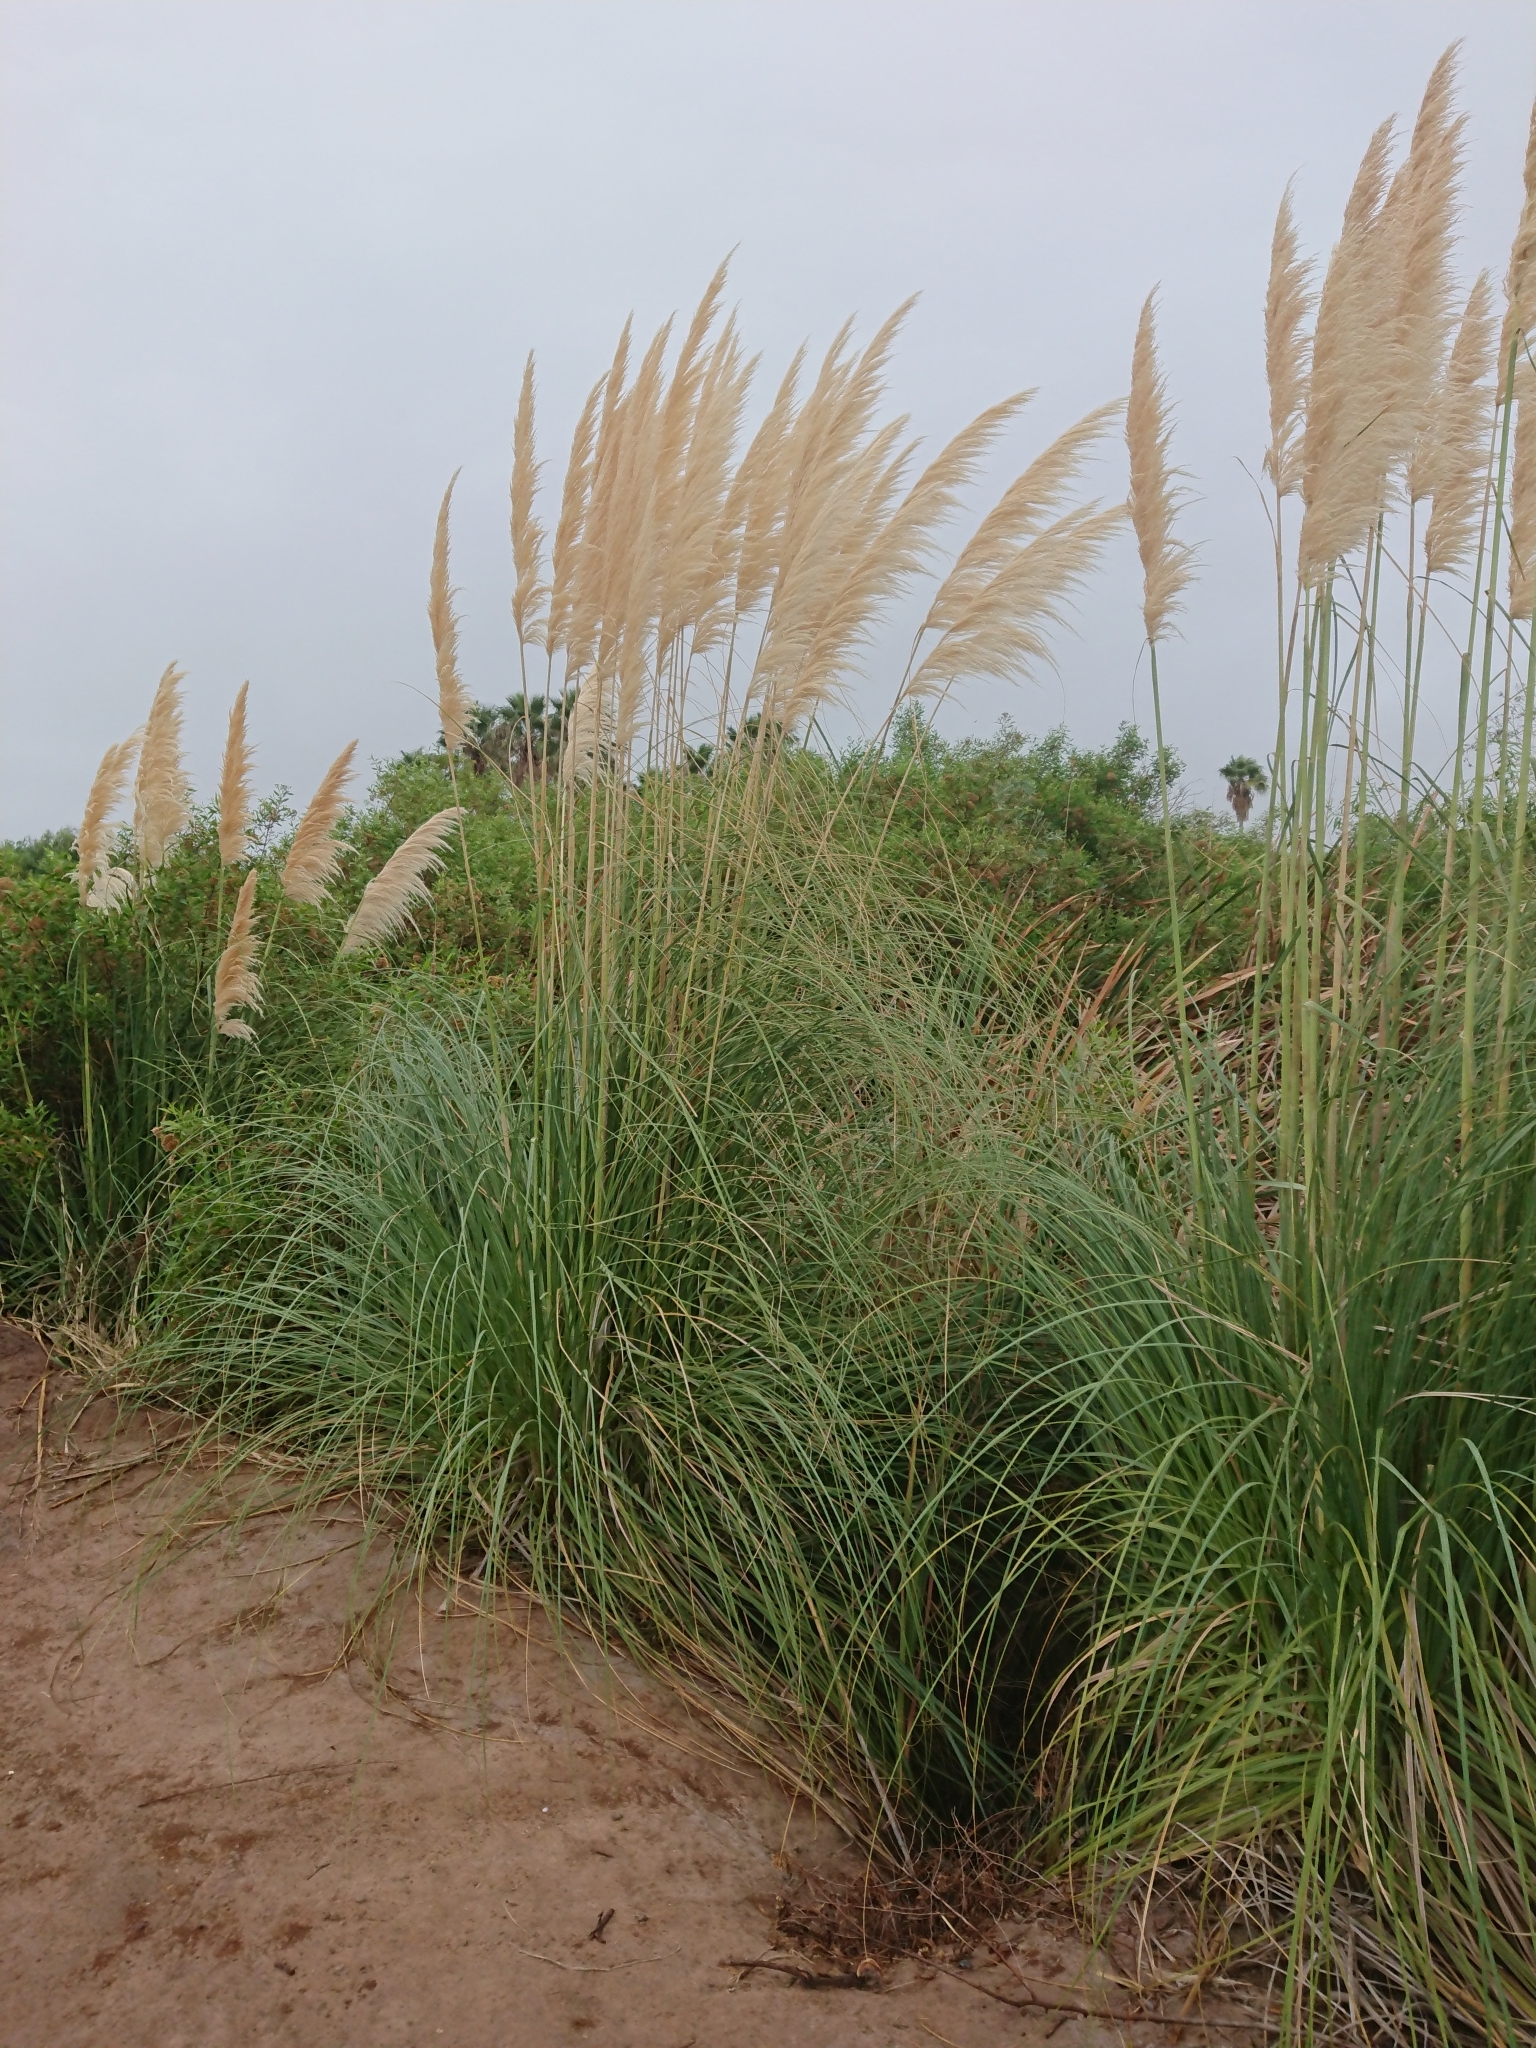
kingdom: Plantae
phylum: Tracheophyta
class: Liliopsida
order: Poales
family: Poaceae
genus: Cortaderia
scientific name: Cortaderia selloana
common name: Uruguayan pampas grass
